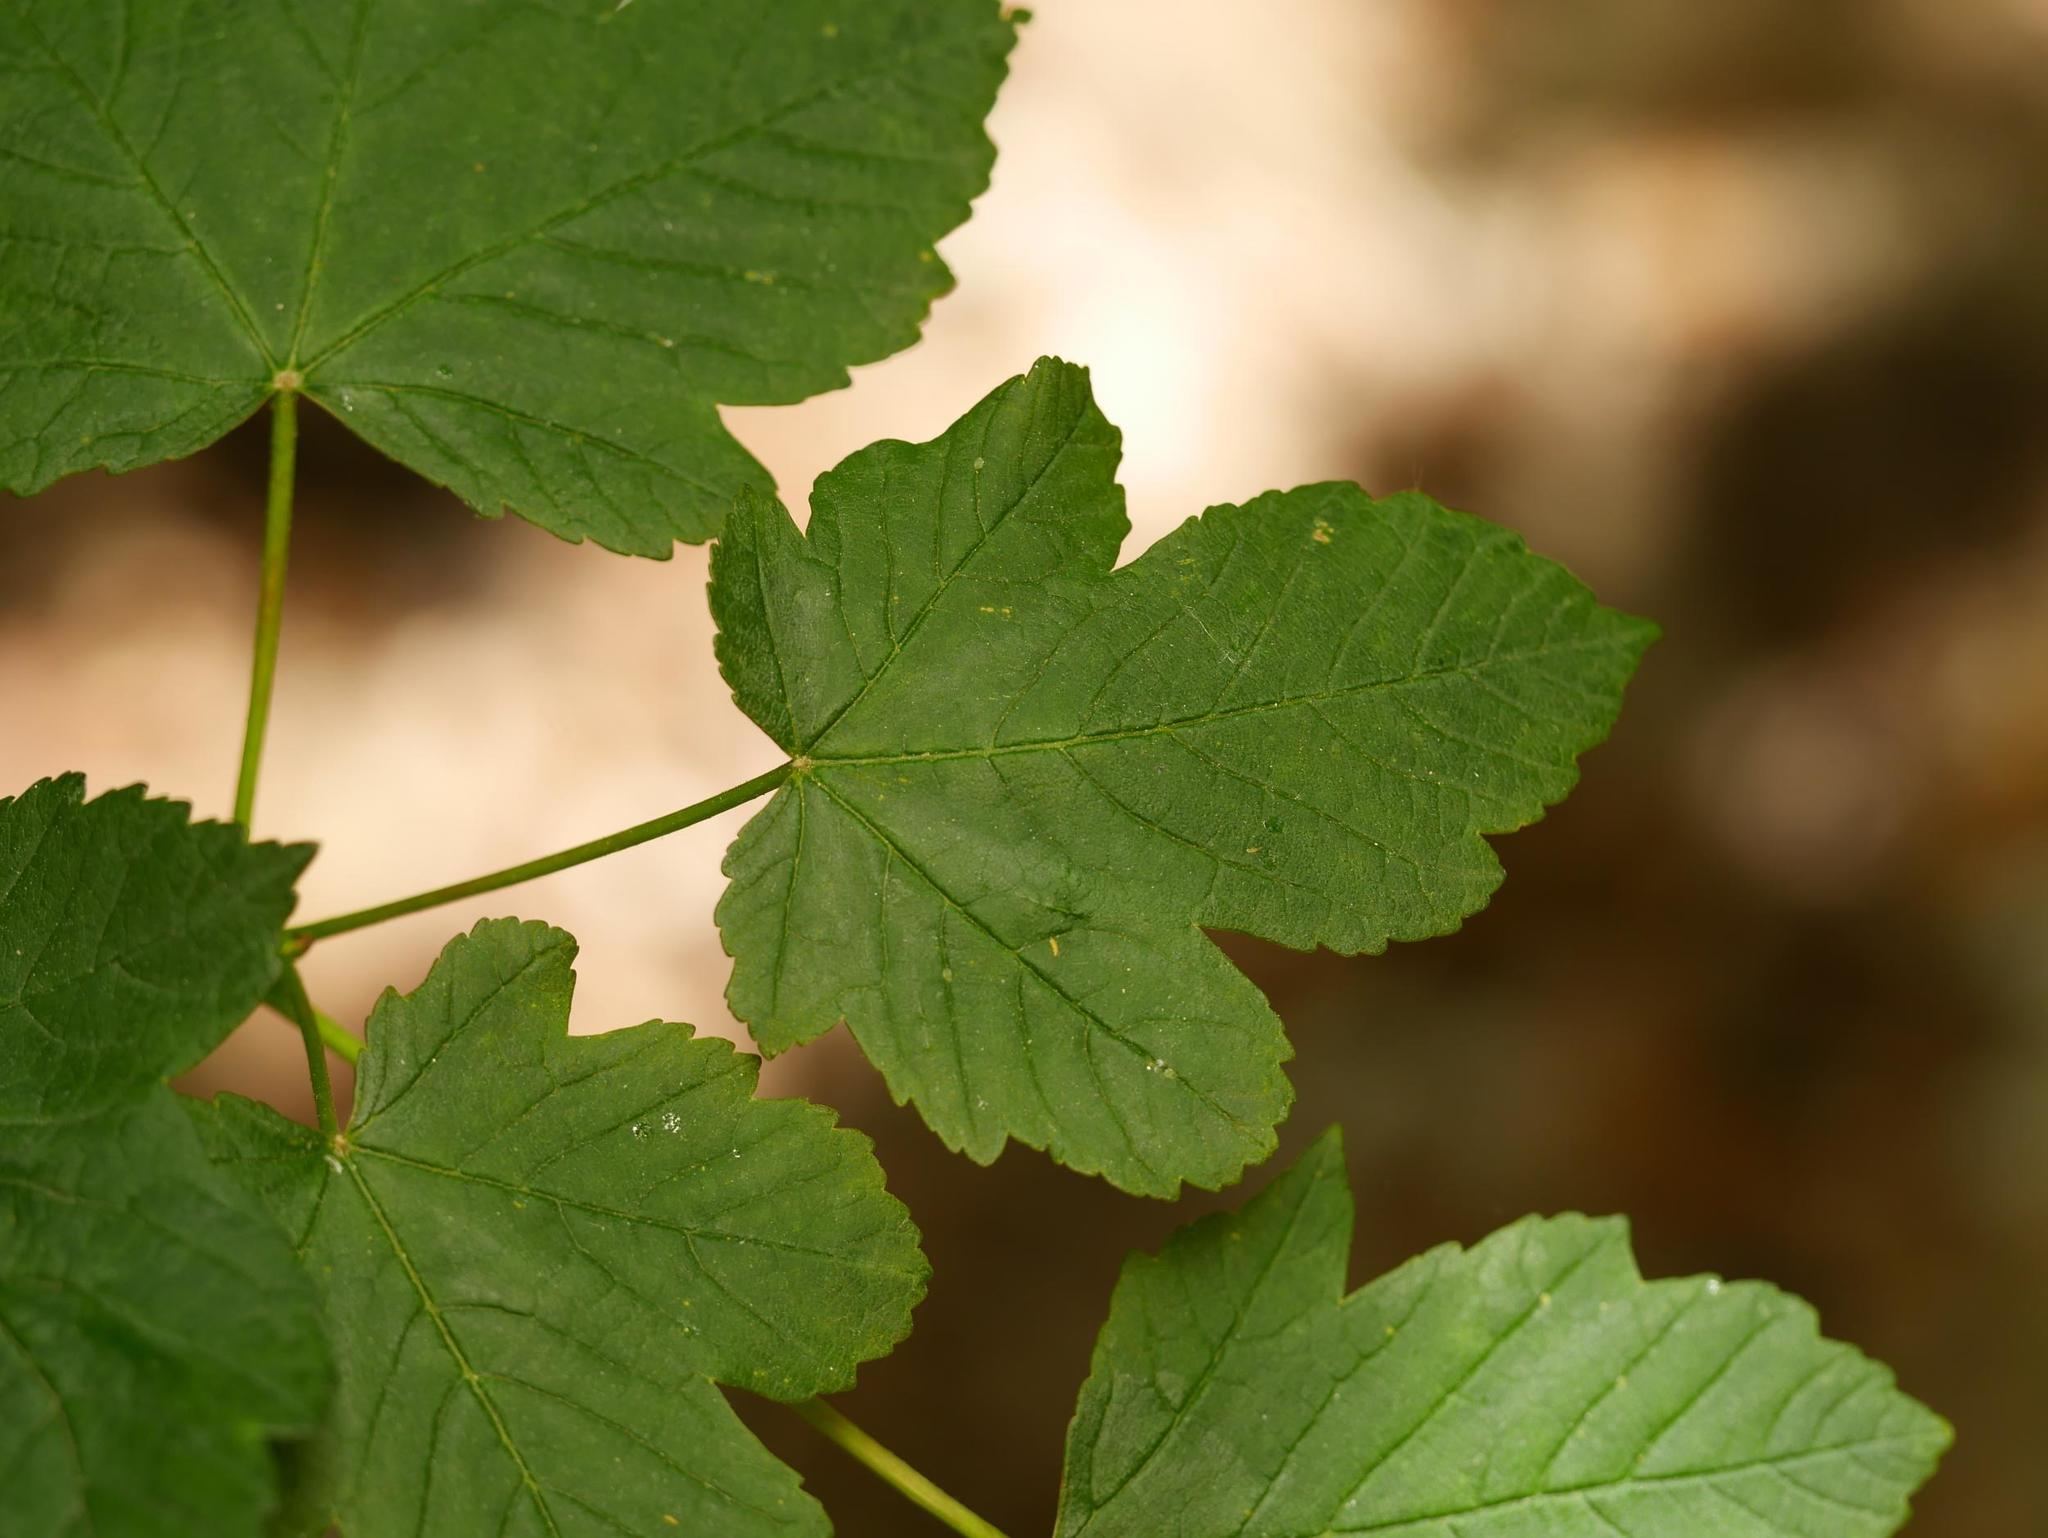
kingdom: Plantae
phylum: Tracheophyta
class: Magnoliopsida
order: Sapindales
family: Sapindaceae
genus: Acer
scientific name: Acer pseudoplatanus
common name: Sycamore
